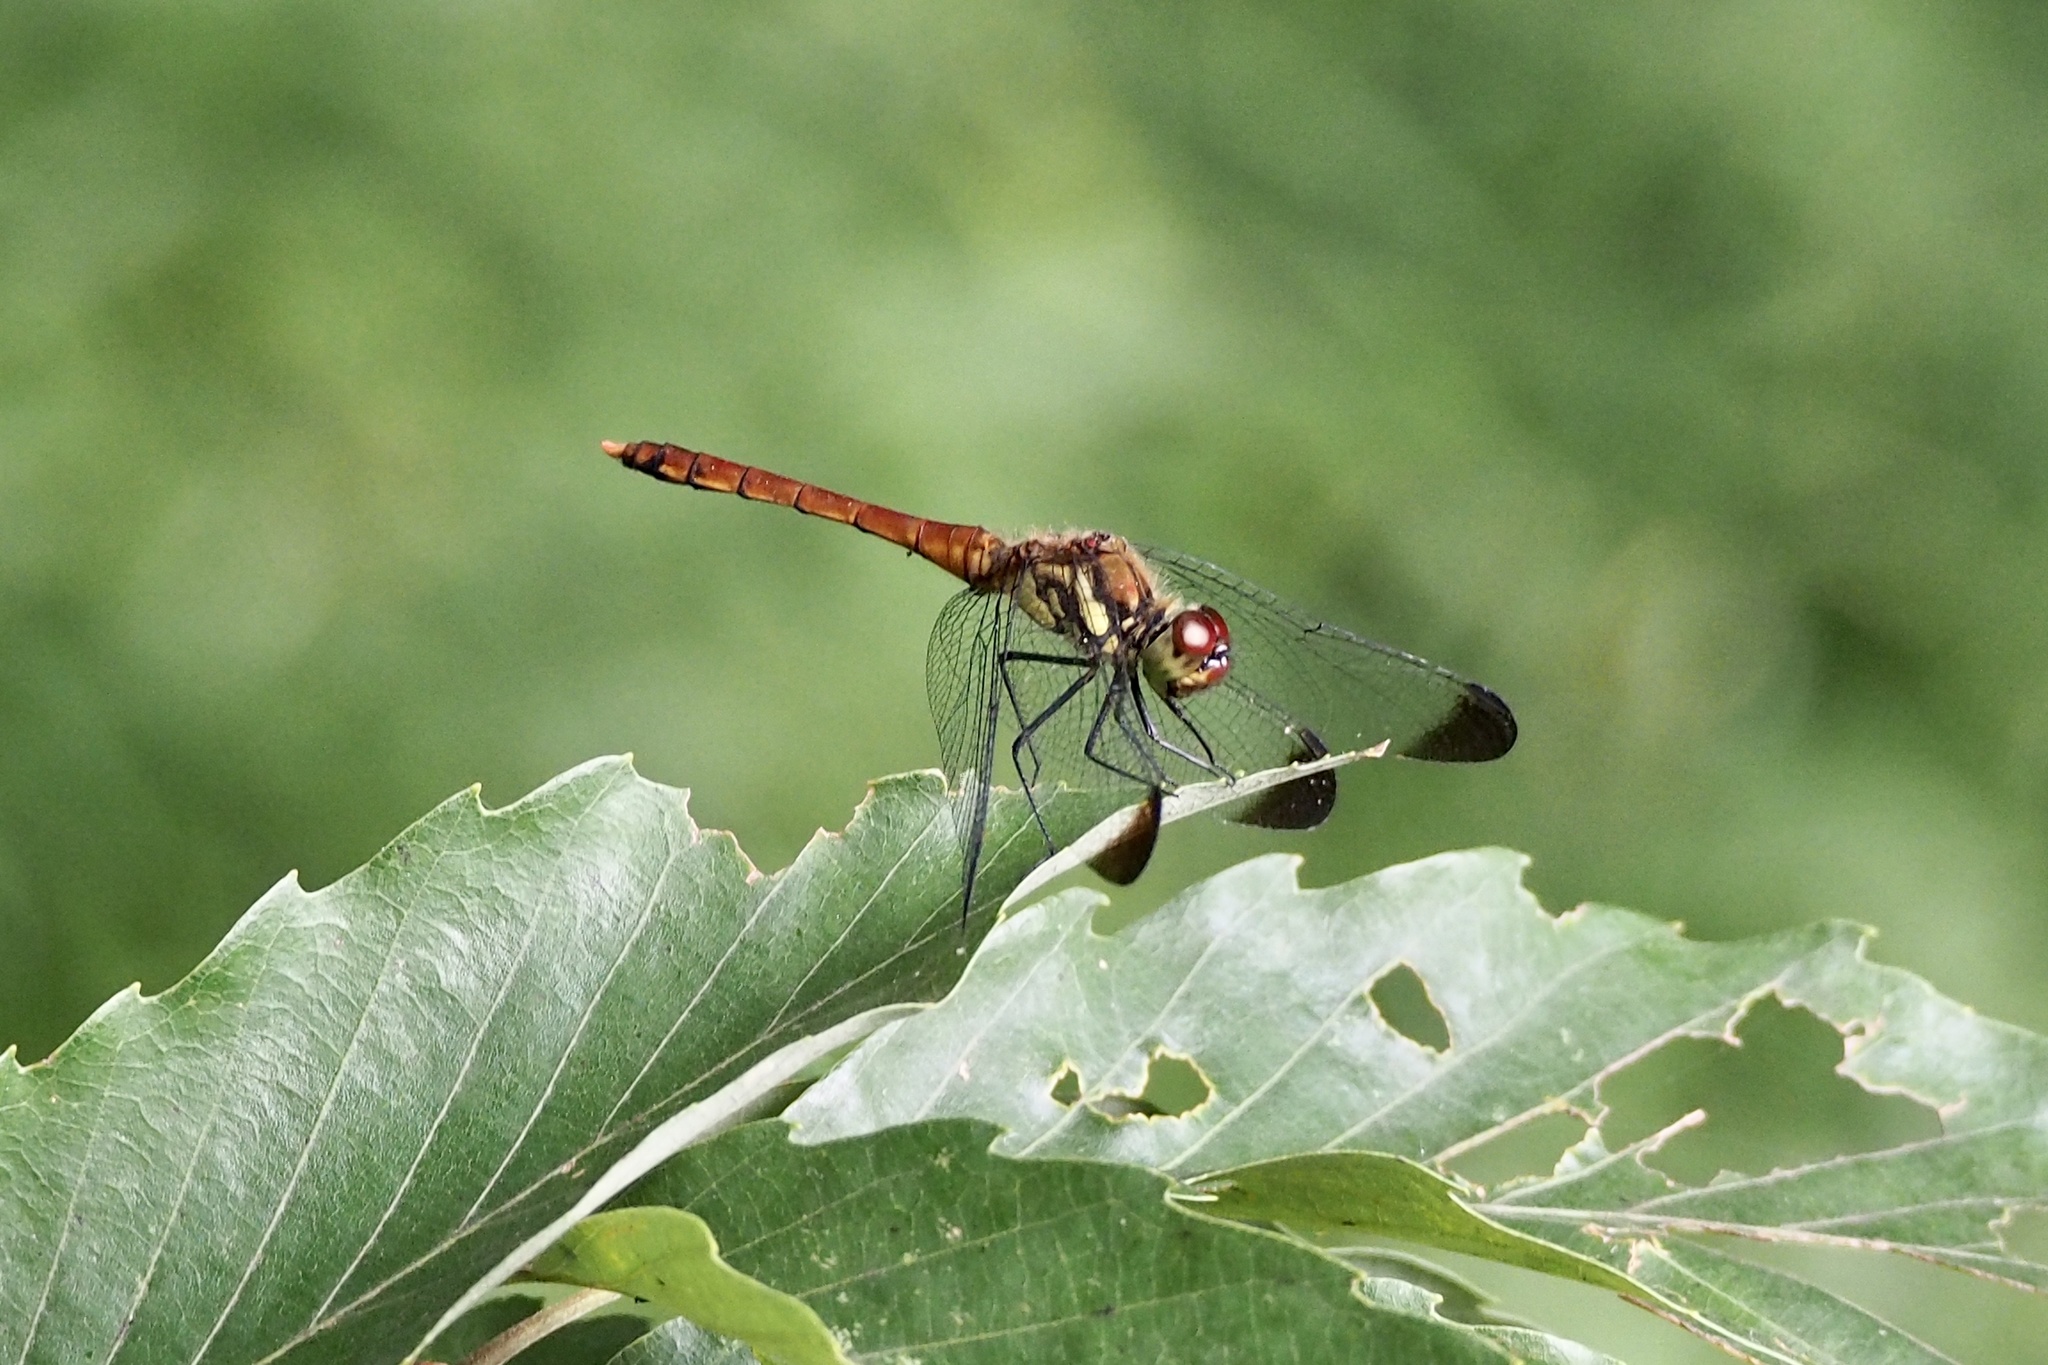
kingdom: Animalia
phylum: Arthropoda
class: Insecta
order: Odonata
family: Libellulidae
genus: Sympetrum
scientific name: Sympetrum baccha
